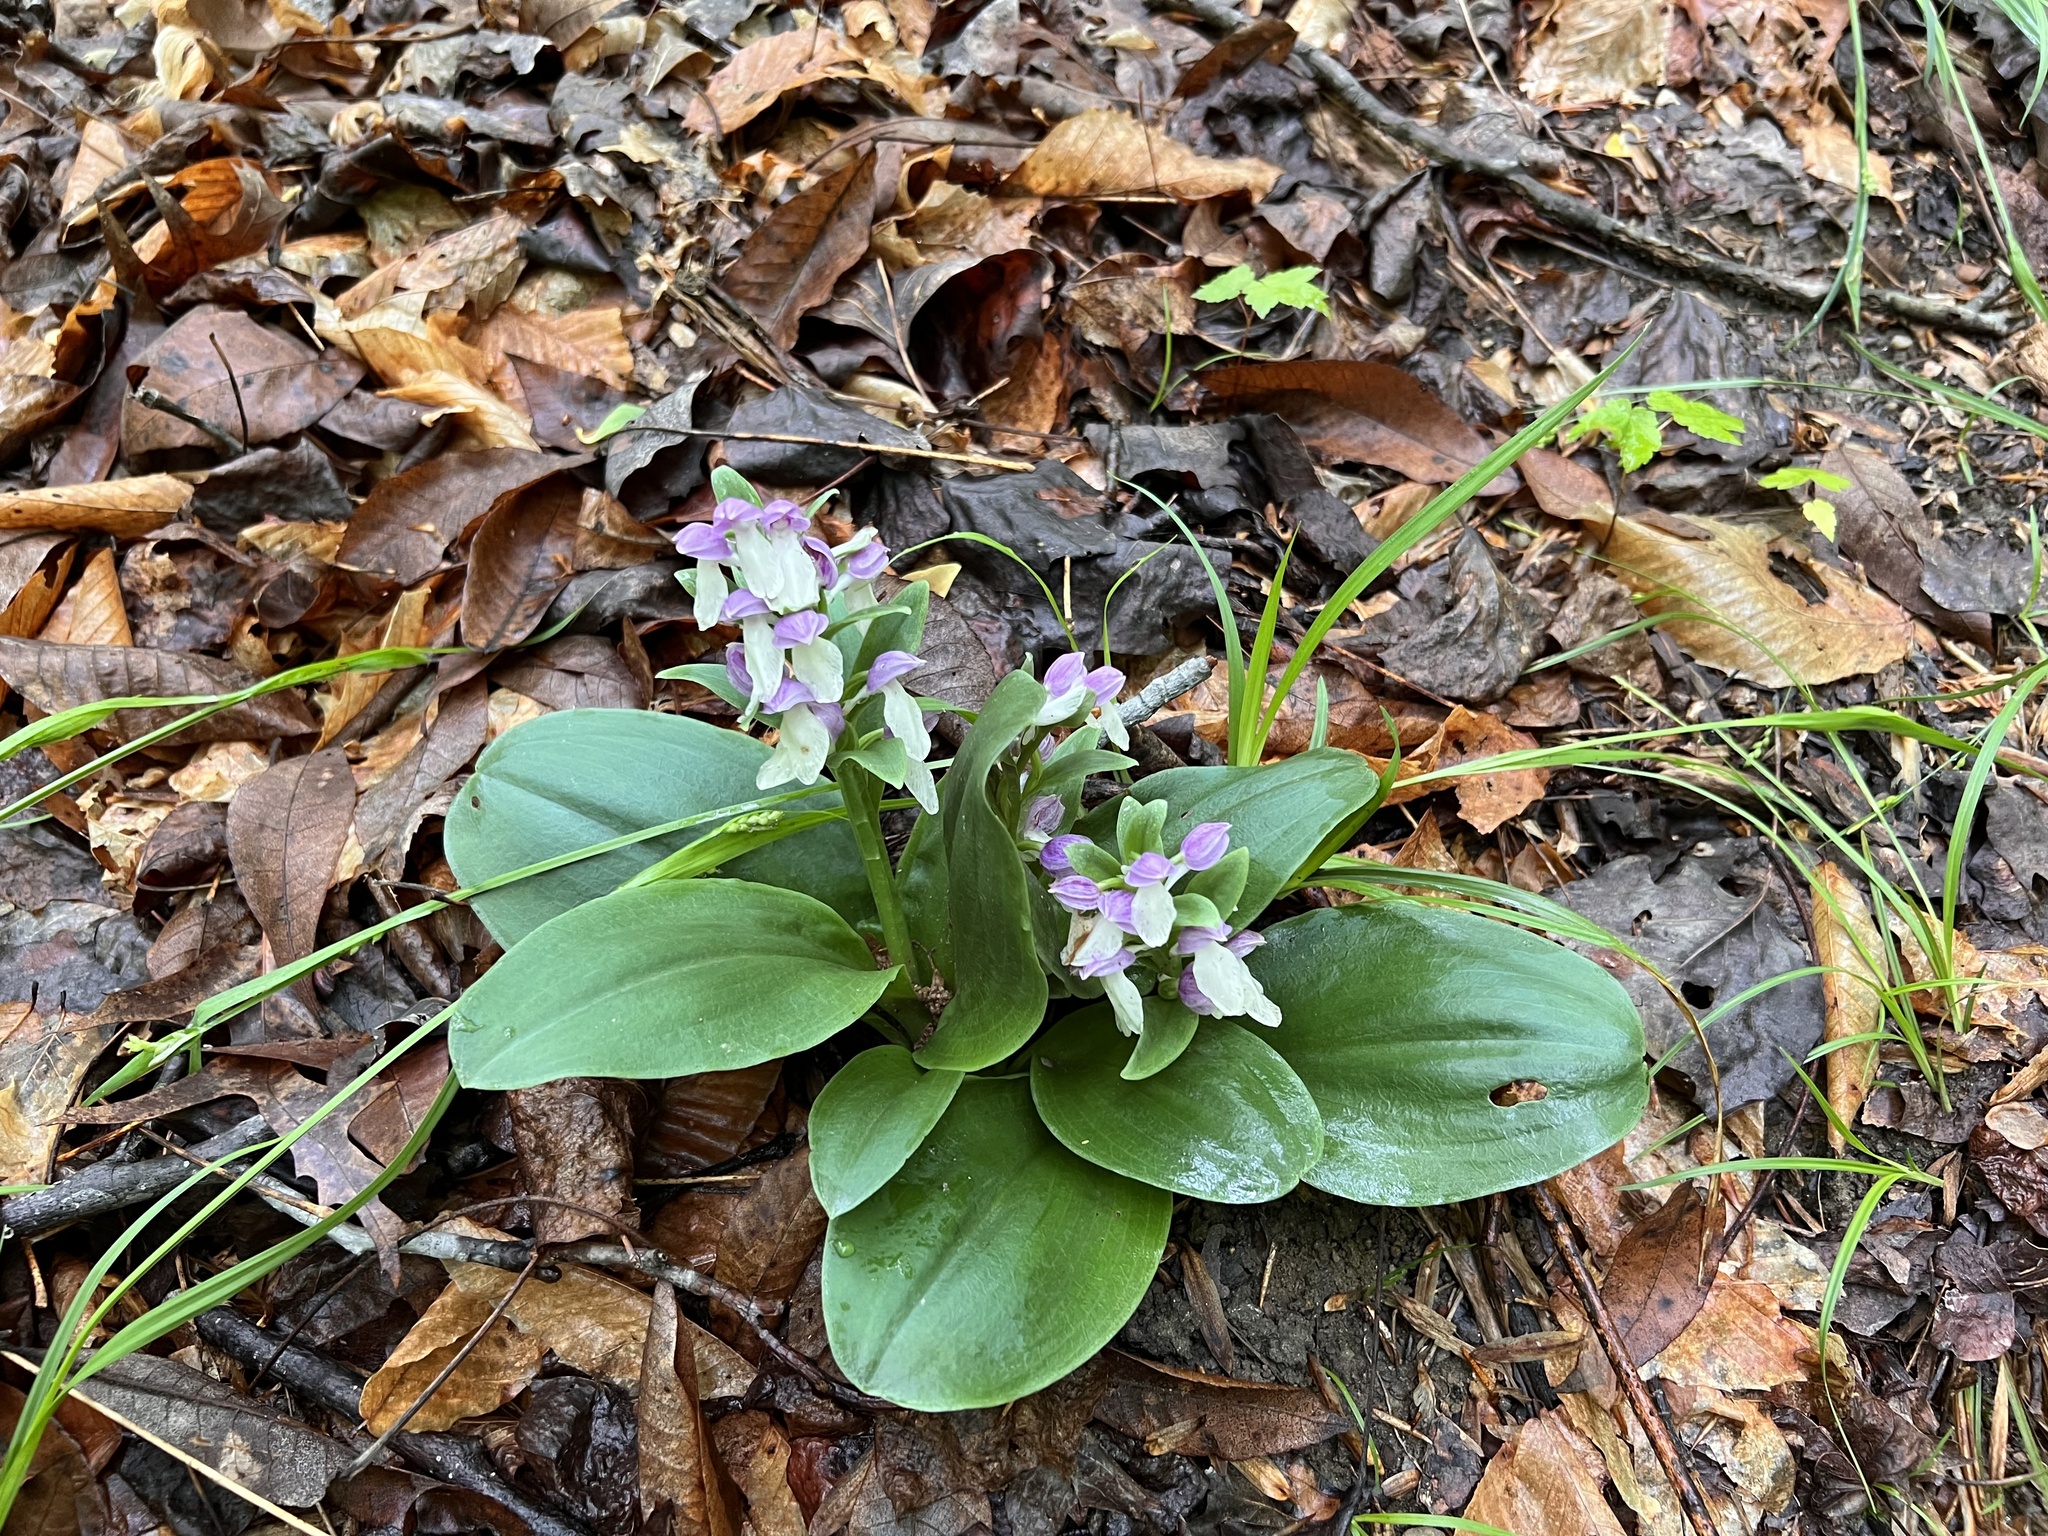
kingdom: Plantae
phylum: Tracheophyta
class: Liliopsida
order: Asparagales
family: Orchidaceae
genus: Galearis
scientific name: Galearis spectabilis
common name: Purple-hooded orchis
